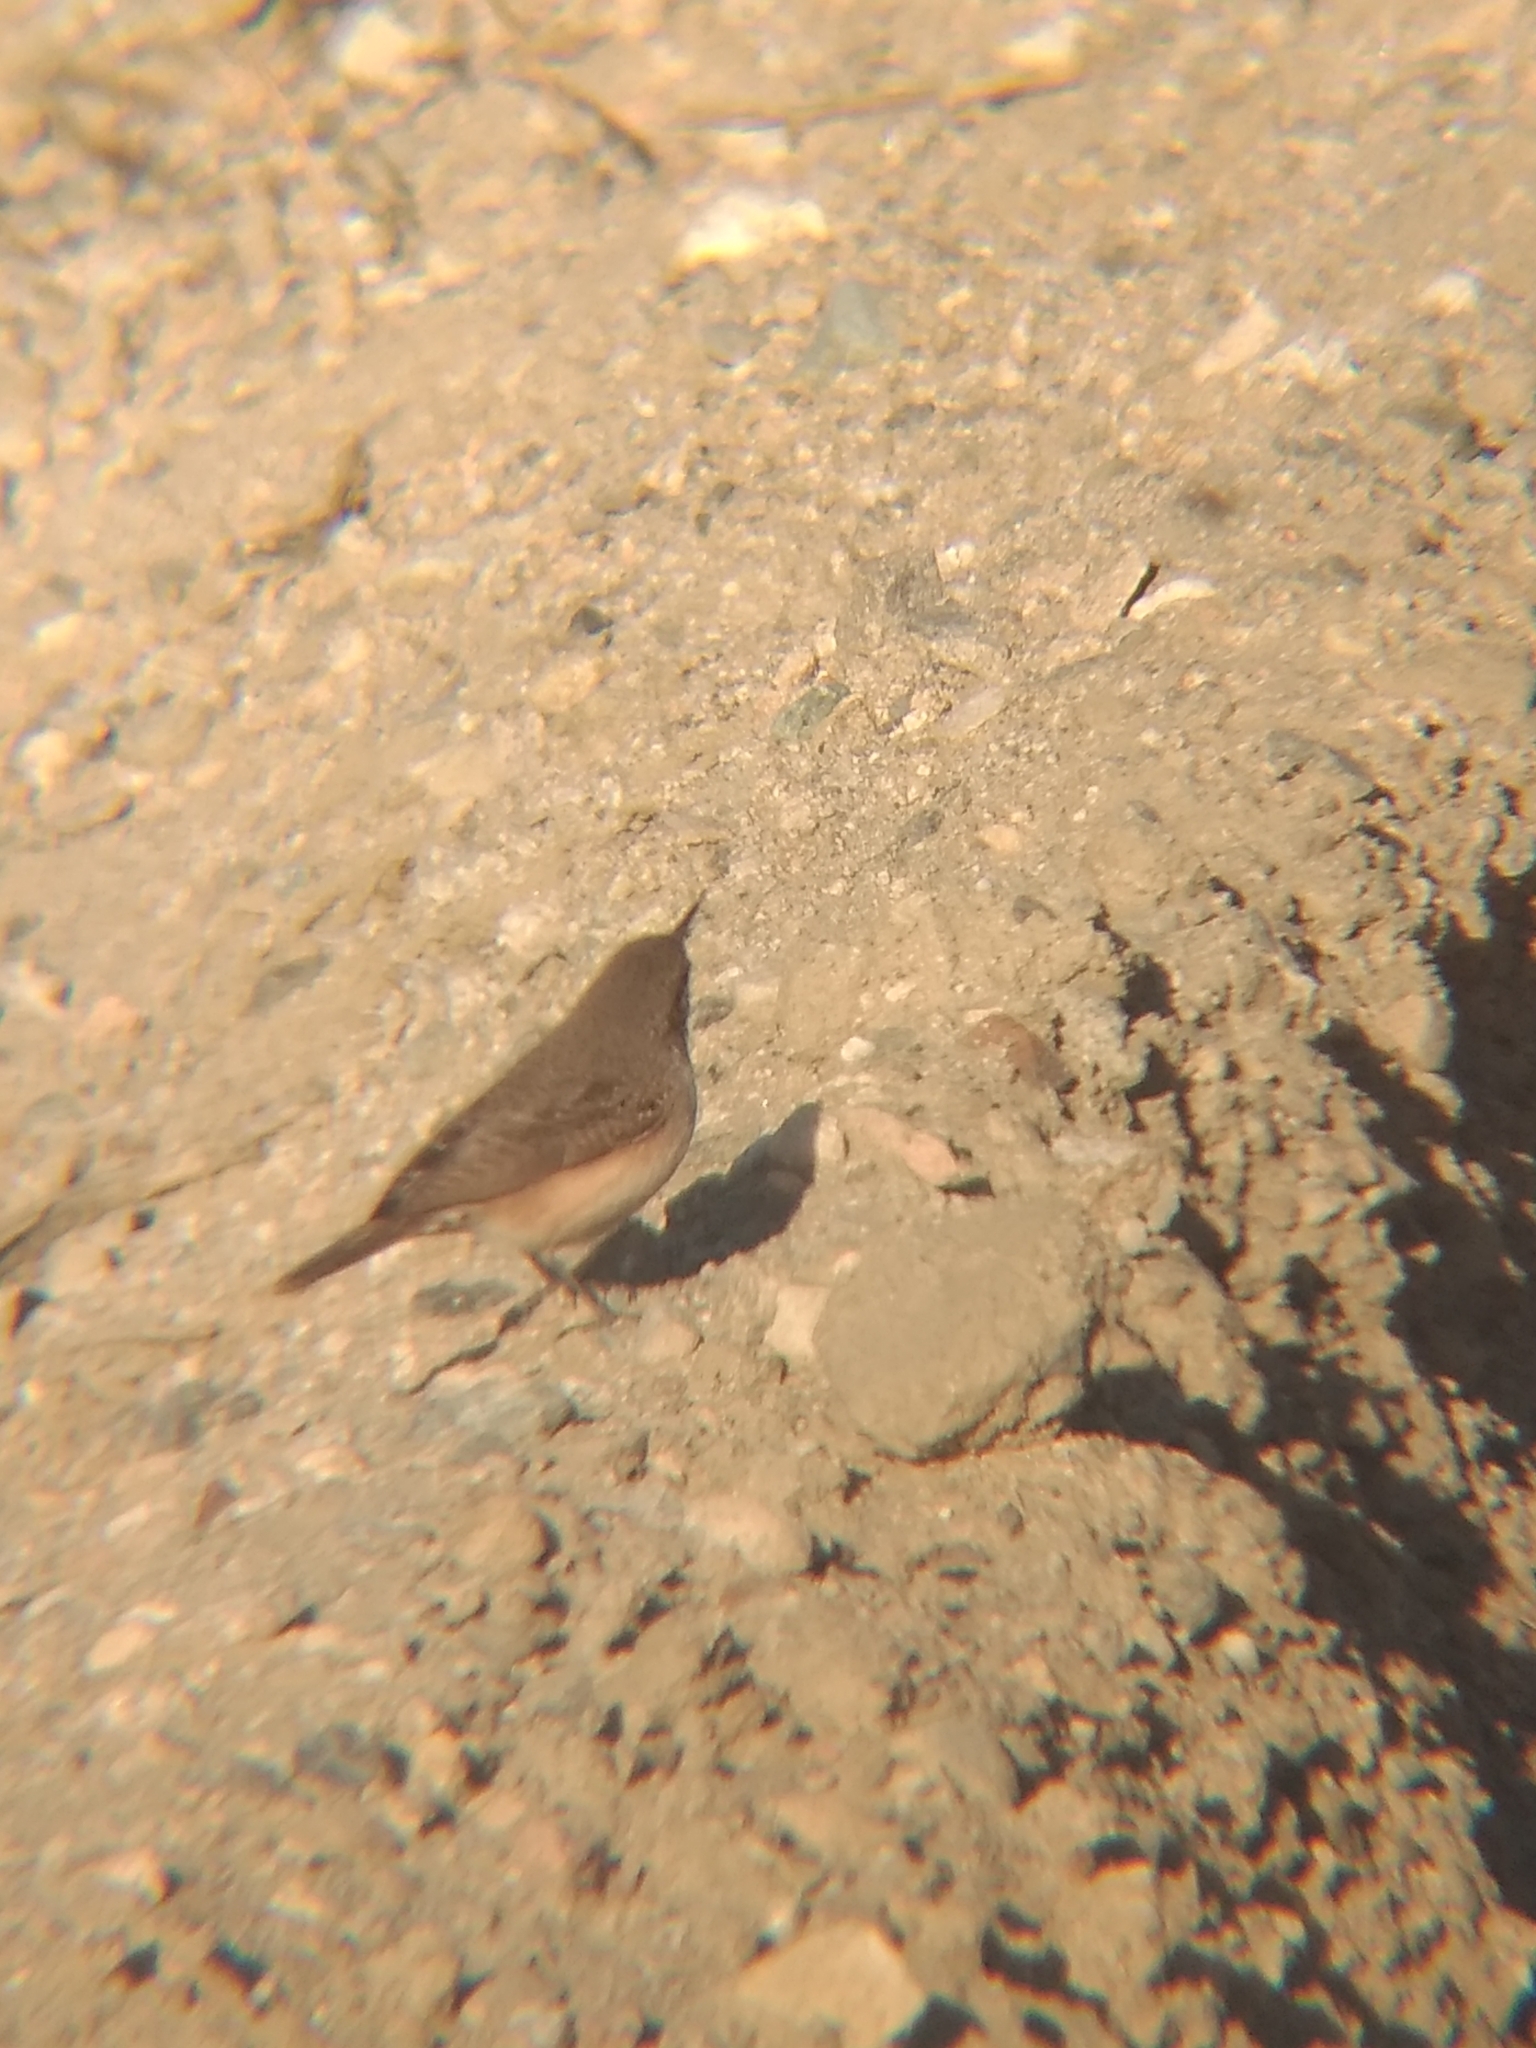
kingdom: Animalia
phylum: Chordata
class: Aves
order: Passeriformes
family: Troglodytidae
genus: Salpinctes
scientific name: Salpinctes obsoletus
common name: Rock wren
